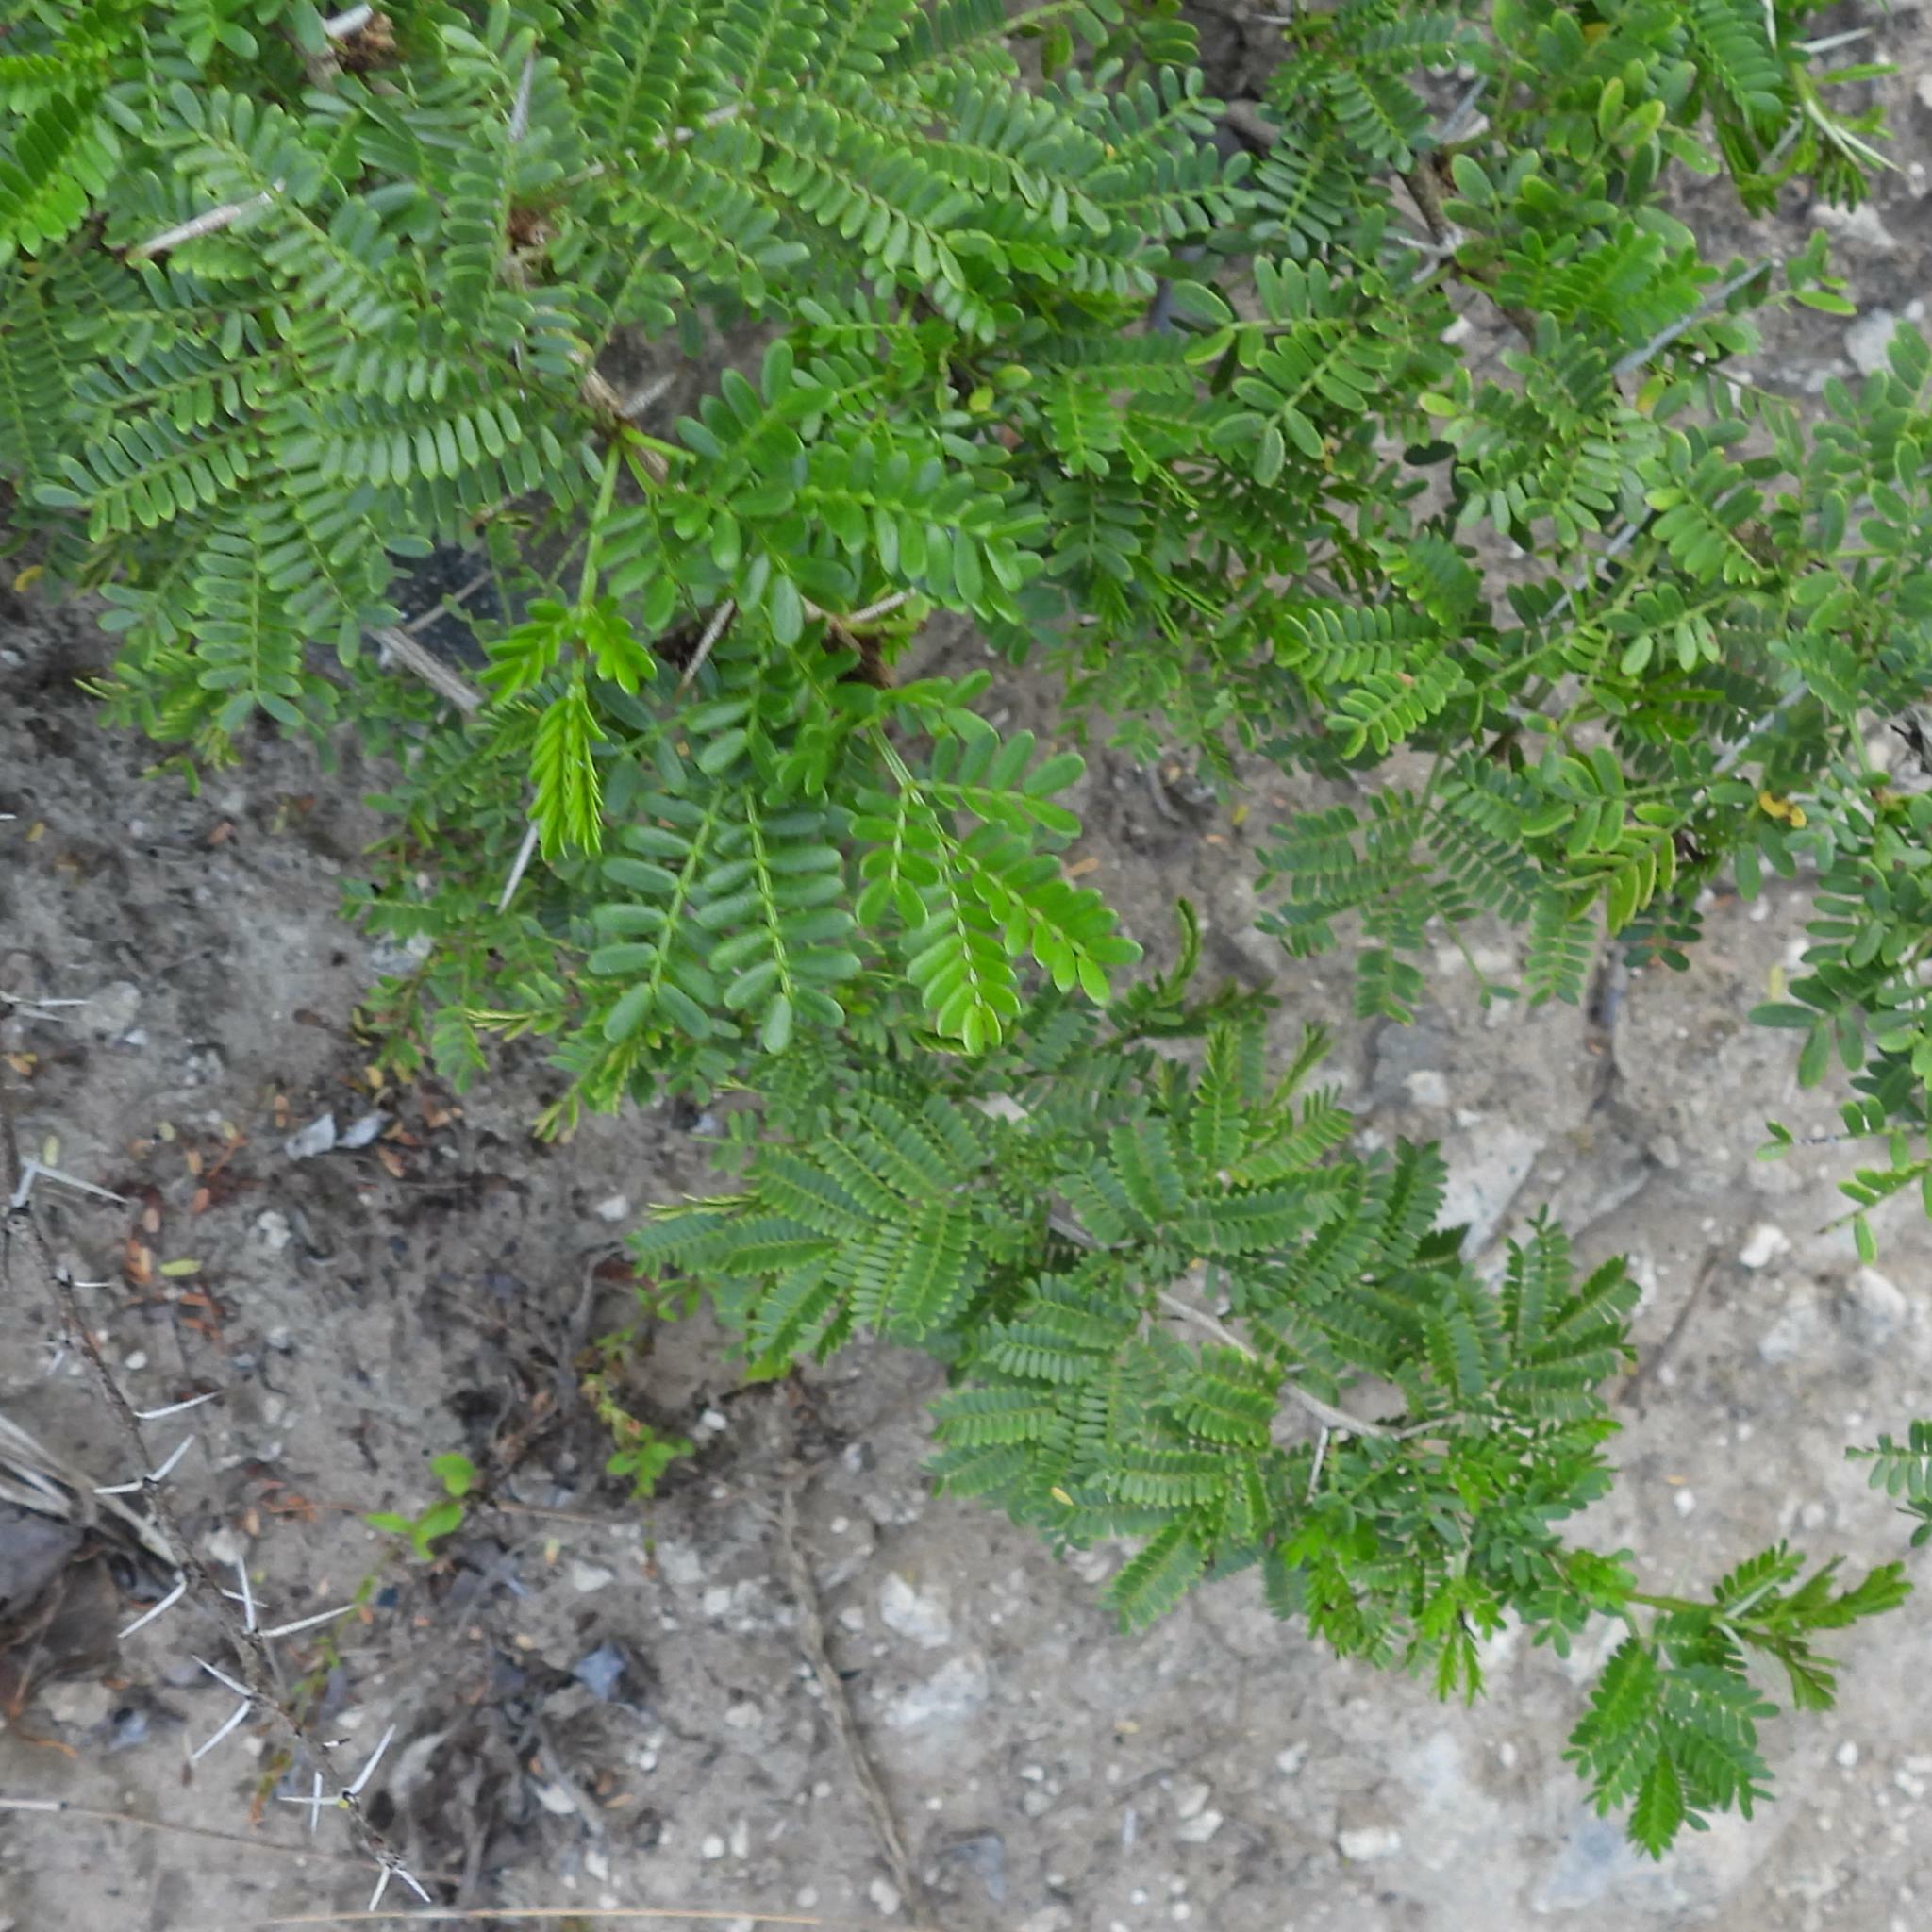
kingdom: Plantae
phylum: Tracheophyta
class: Magnoliopsida
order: Fabales
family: Fabaceae
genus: Vachellia
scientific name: Vachellia karroo
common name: Sweet thorn
